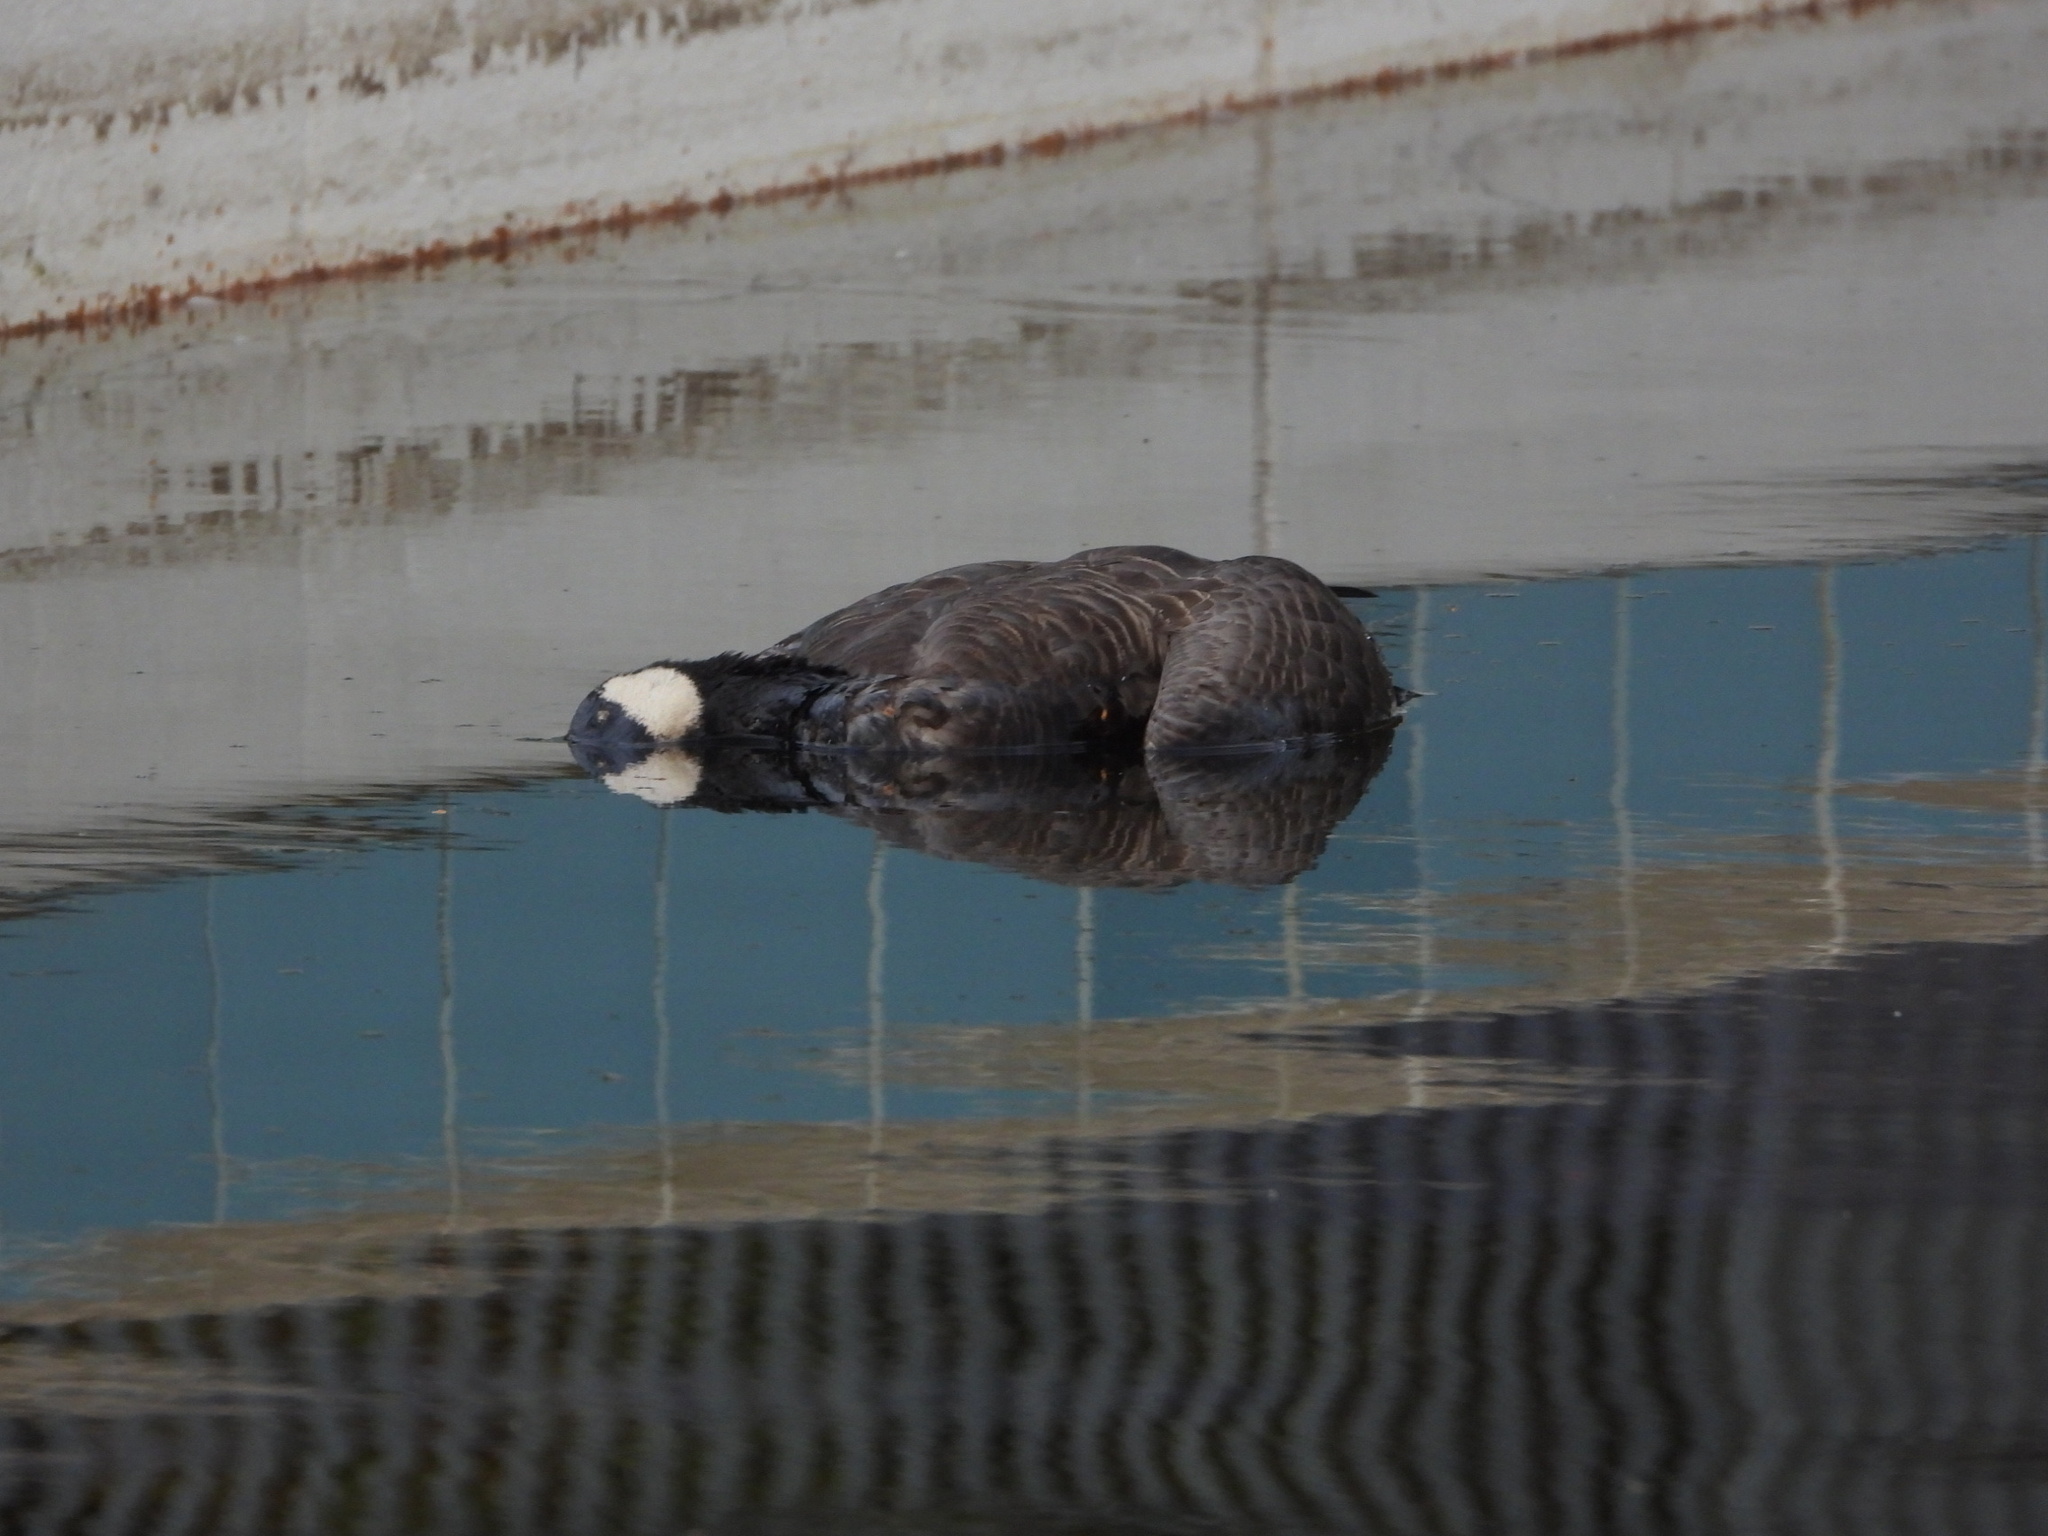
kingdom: Animalia
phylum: Chordata
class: Aves
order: Anseriformes
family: Anatidae
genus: Branta
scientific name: Branta hutchinsii
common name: Cackling goose
